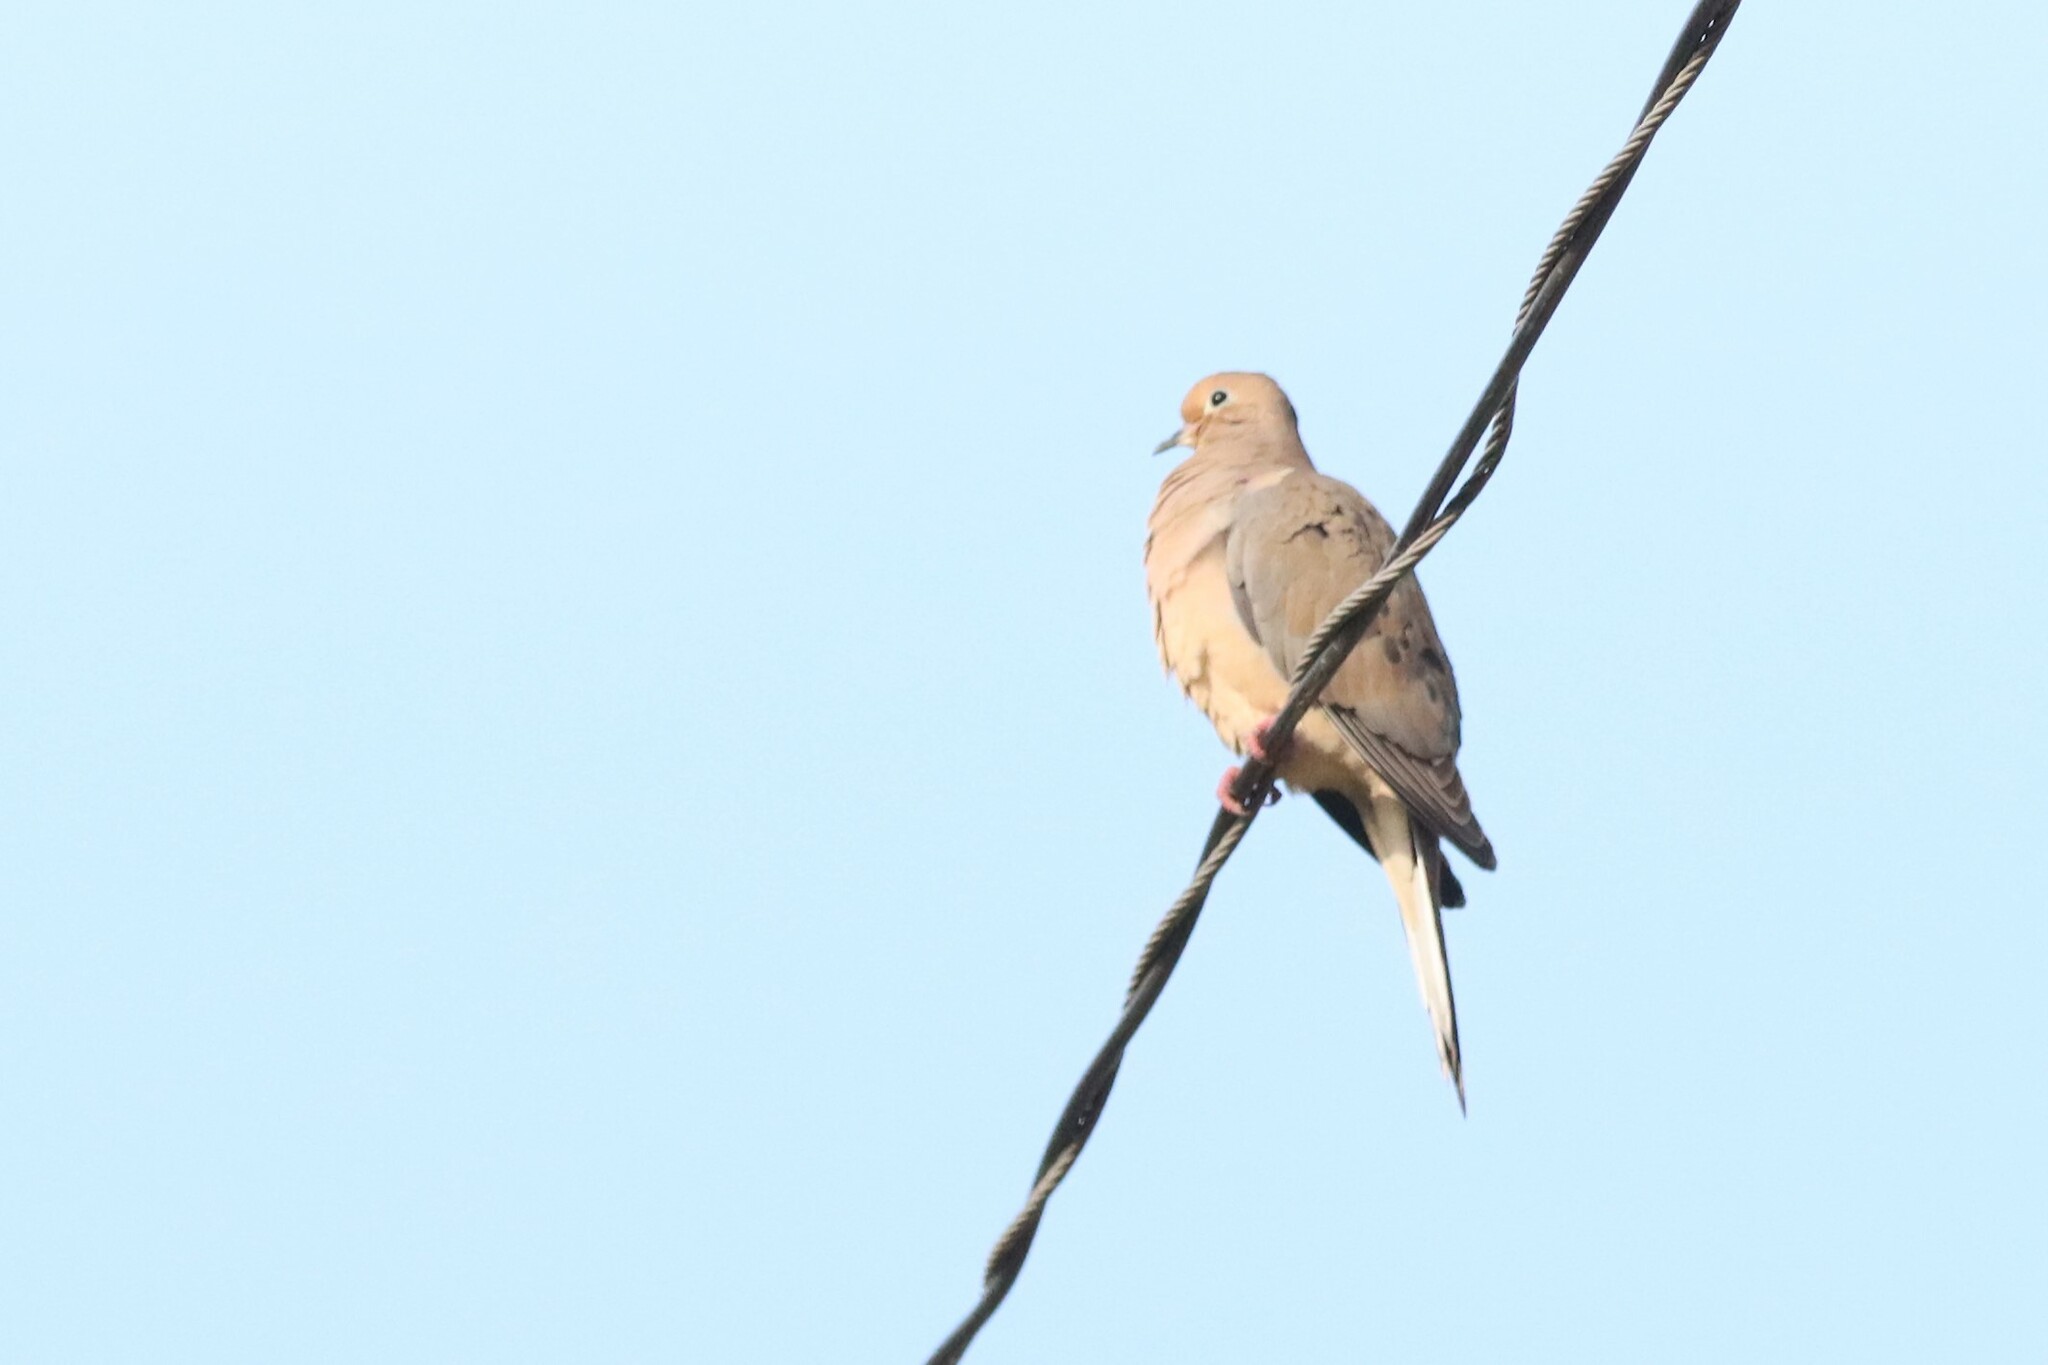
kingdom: Animalia
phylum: Chordata
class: Aves
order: Columbiformes
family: Columbidae
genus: Zenaida
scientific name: Zenaida macroura
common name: Mourning dove
